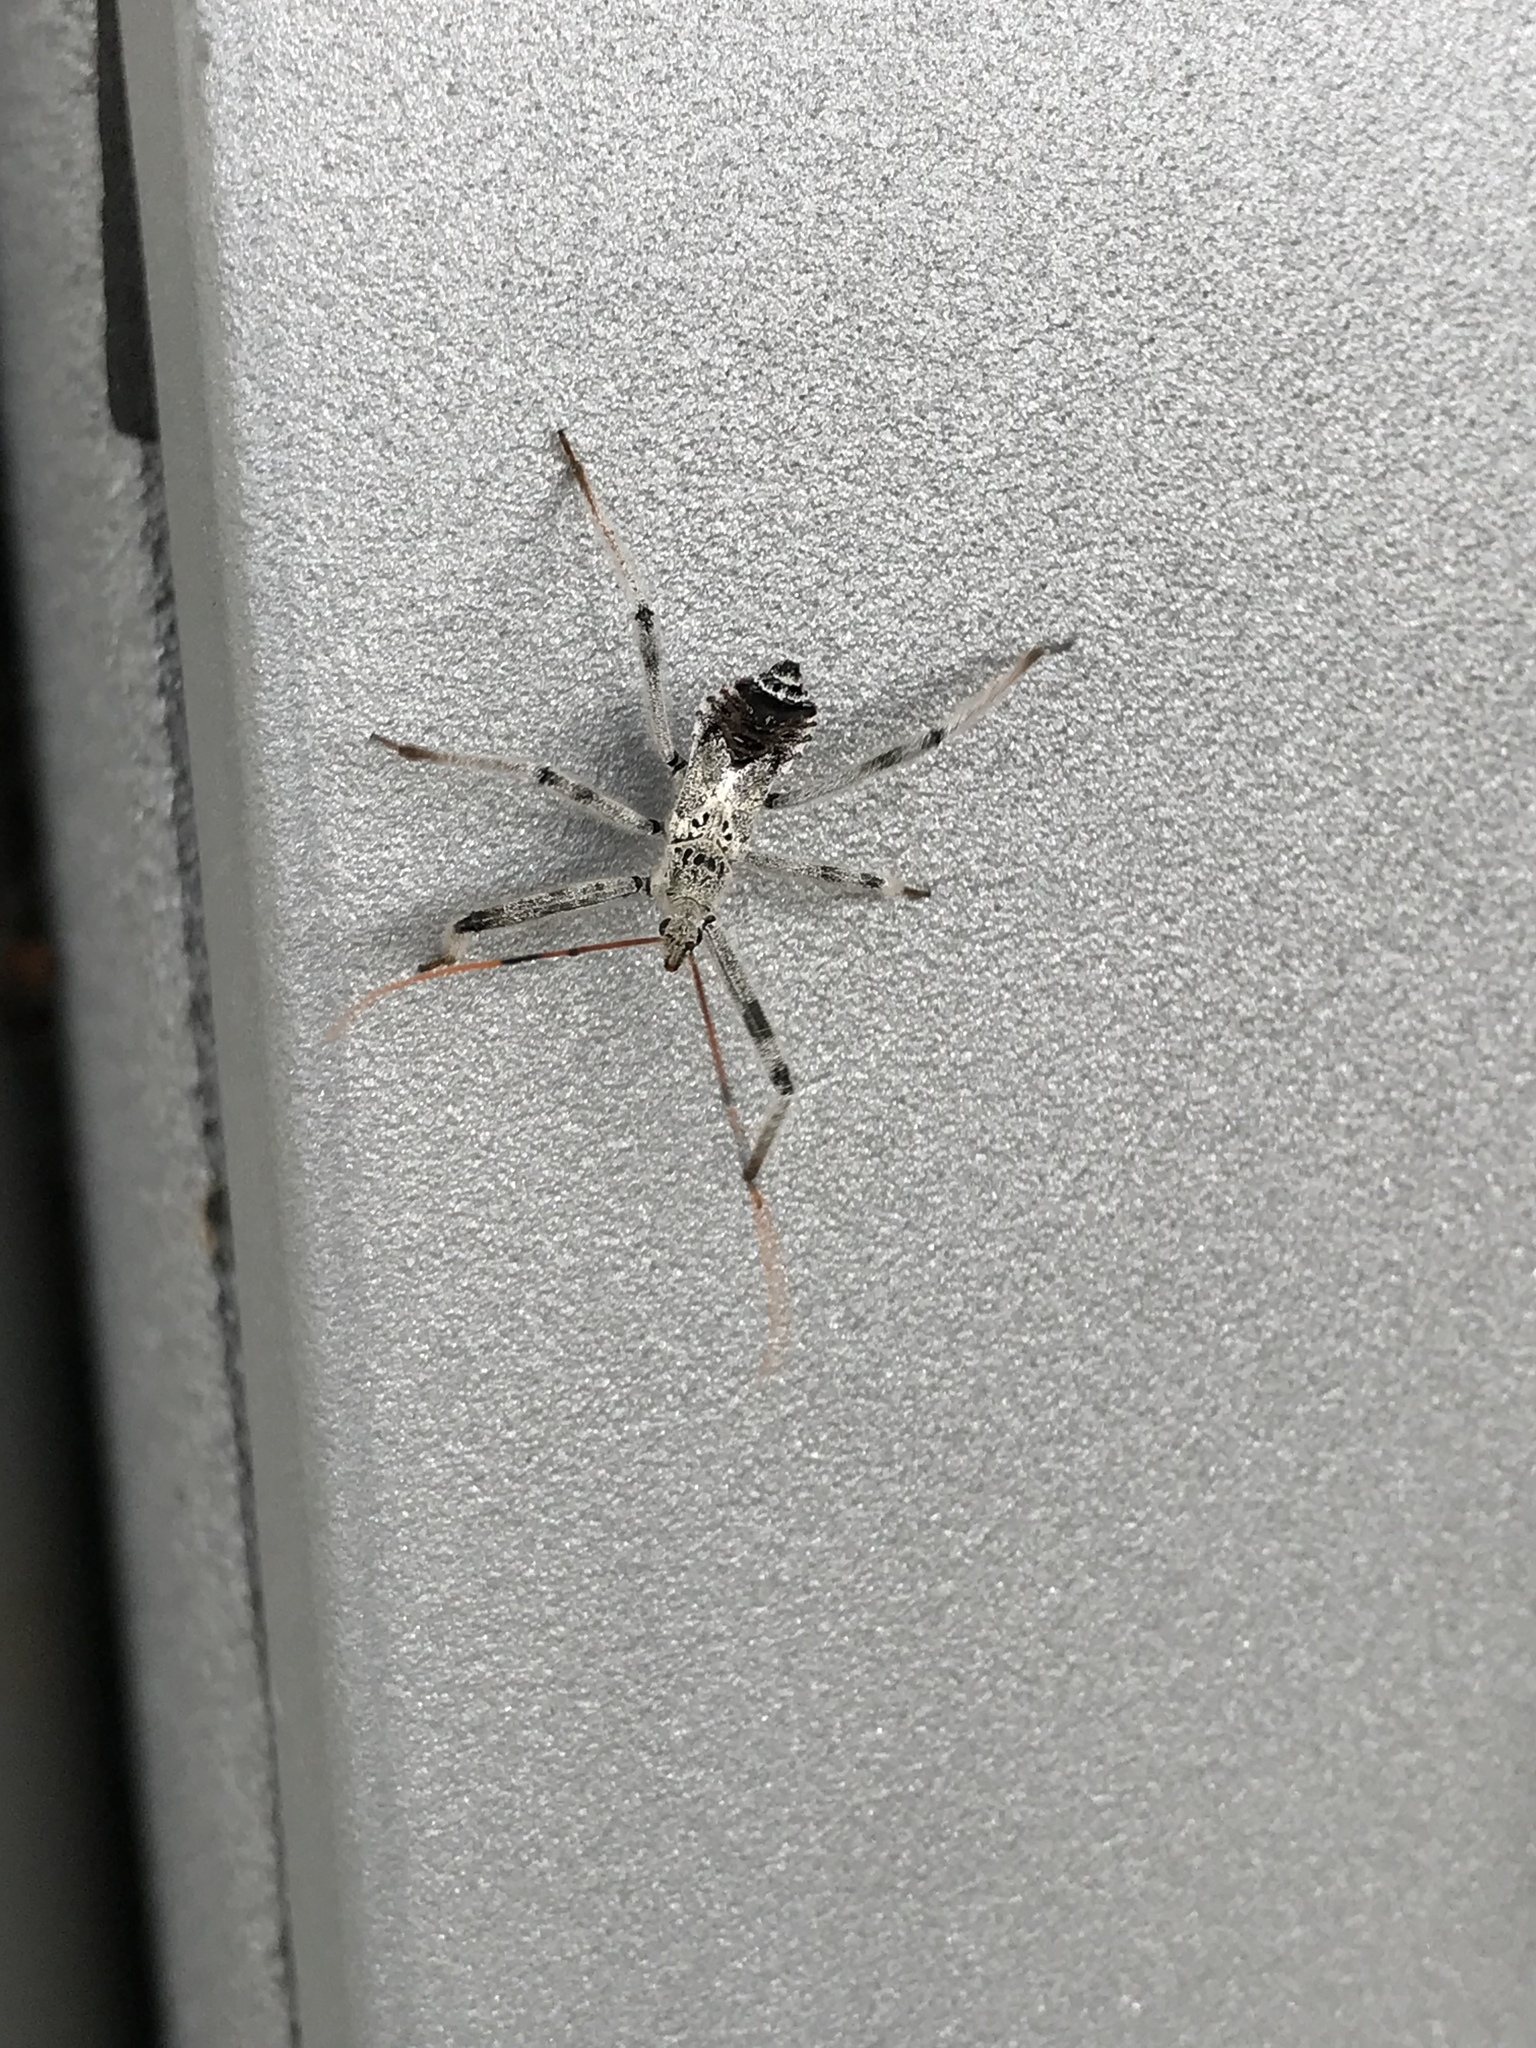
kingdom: Animalia
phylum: Arthropoda
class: Insecta
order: Hemiptera
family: Reduviidae
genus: Arilus
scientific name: Arilus cristatus
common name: North american wheel bug
